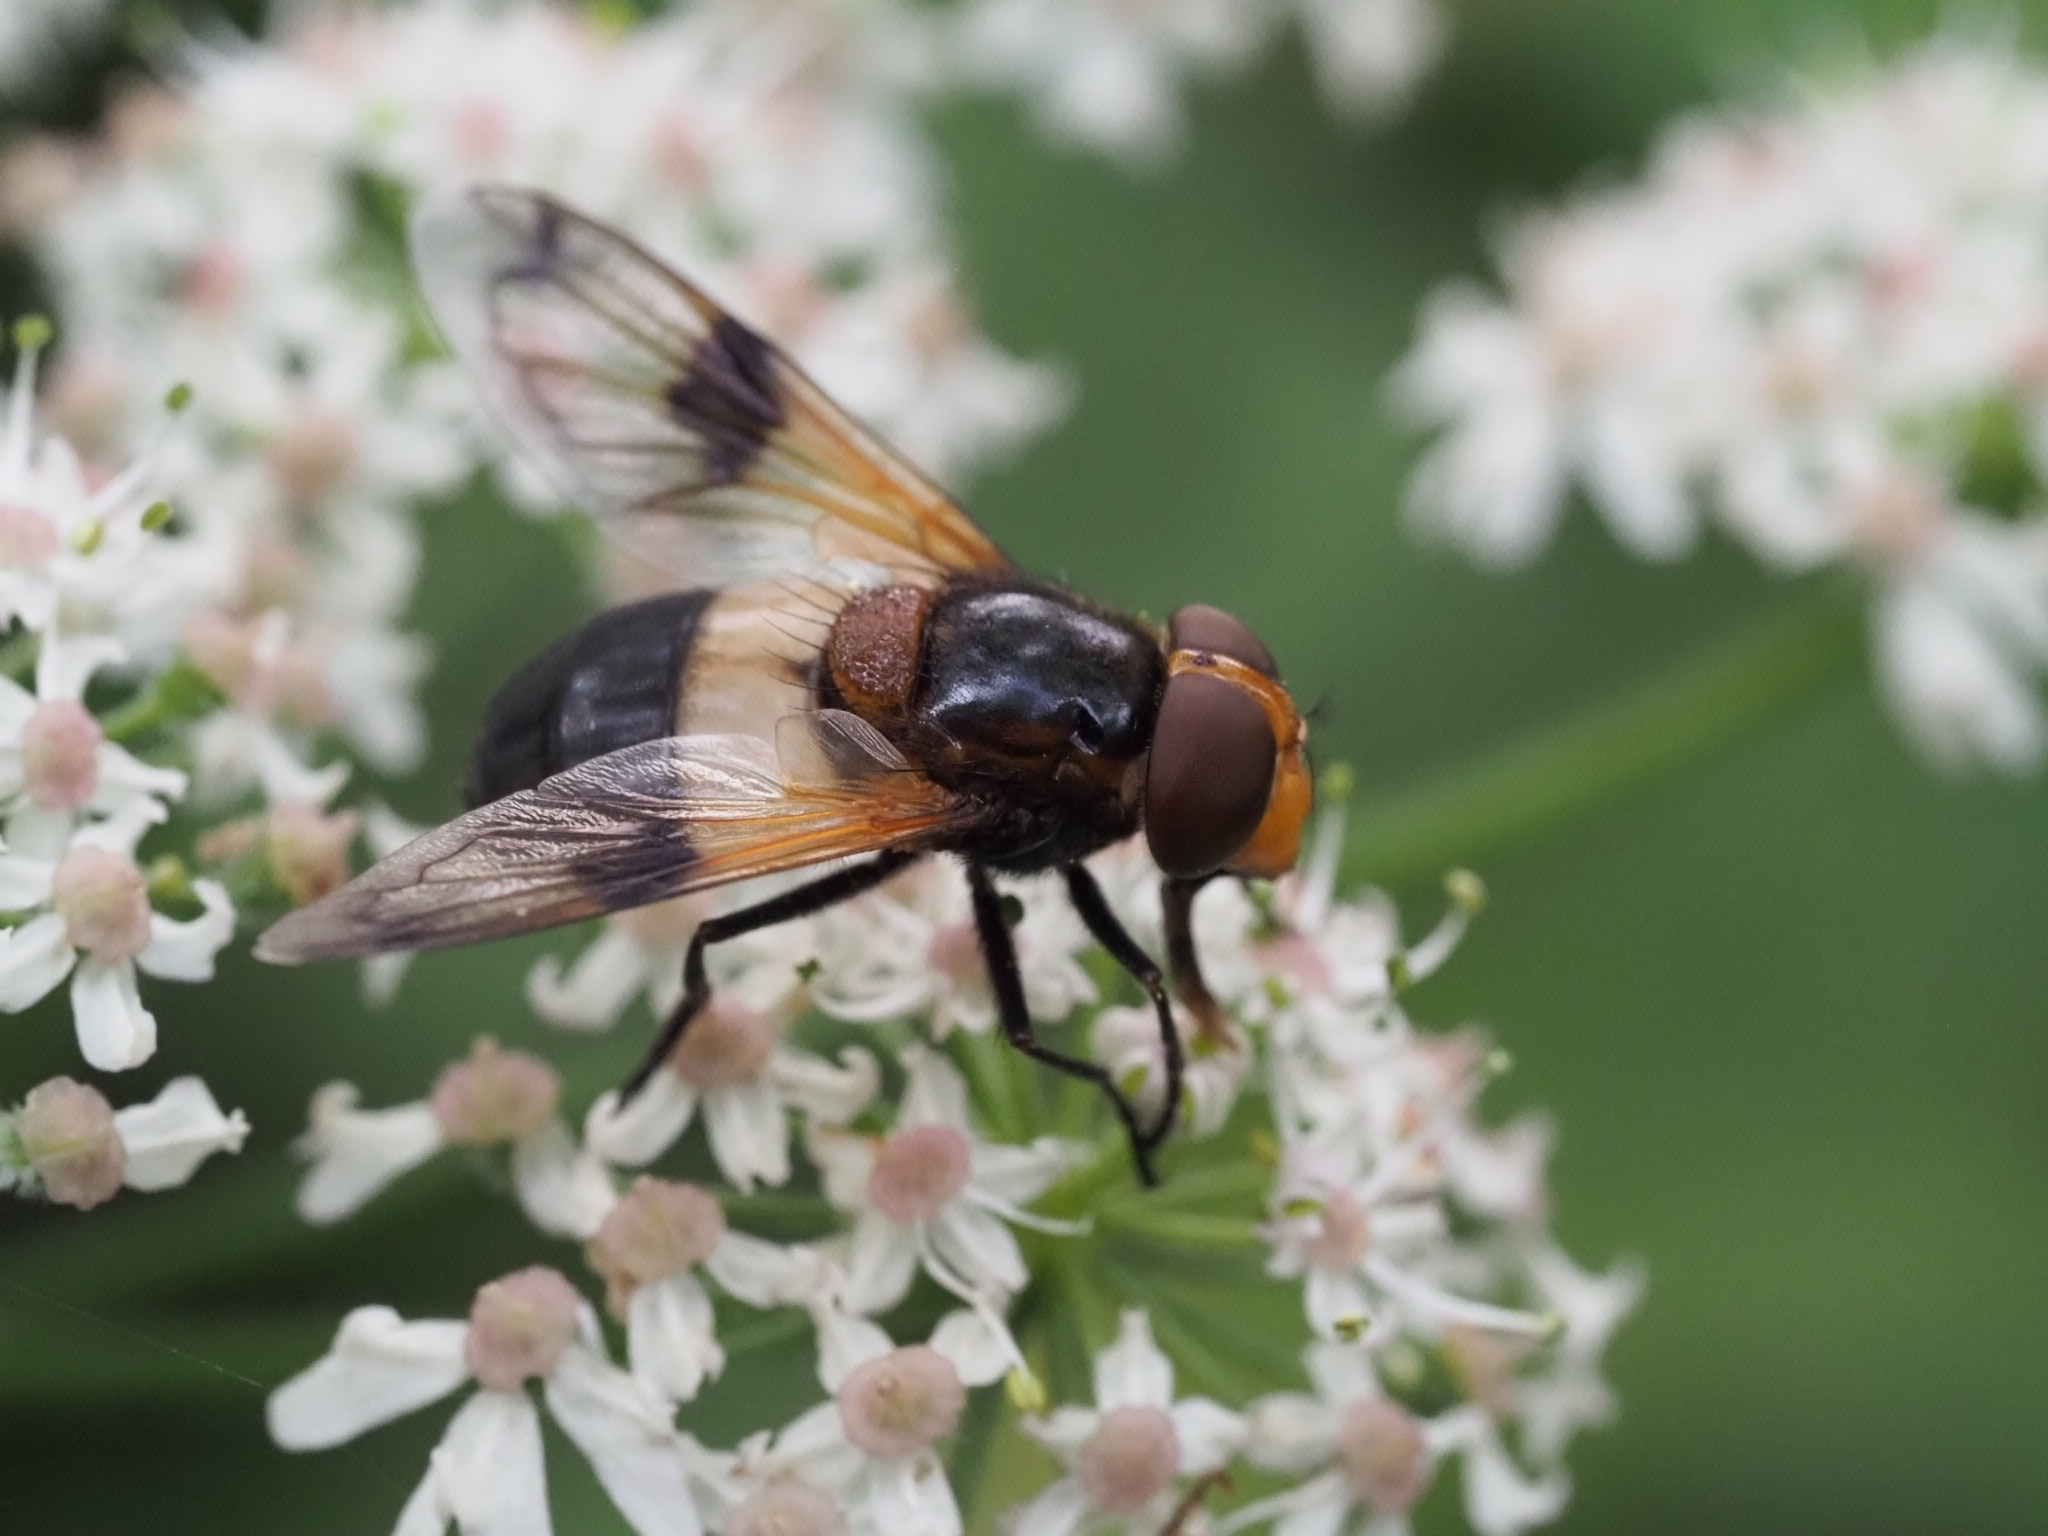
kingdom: Animalia
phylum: Arthropoda
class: Insecta
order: Diptera
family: Syrphidae
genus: Volucella
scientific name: Volucella pellucens
